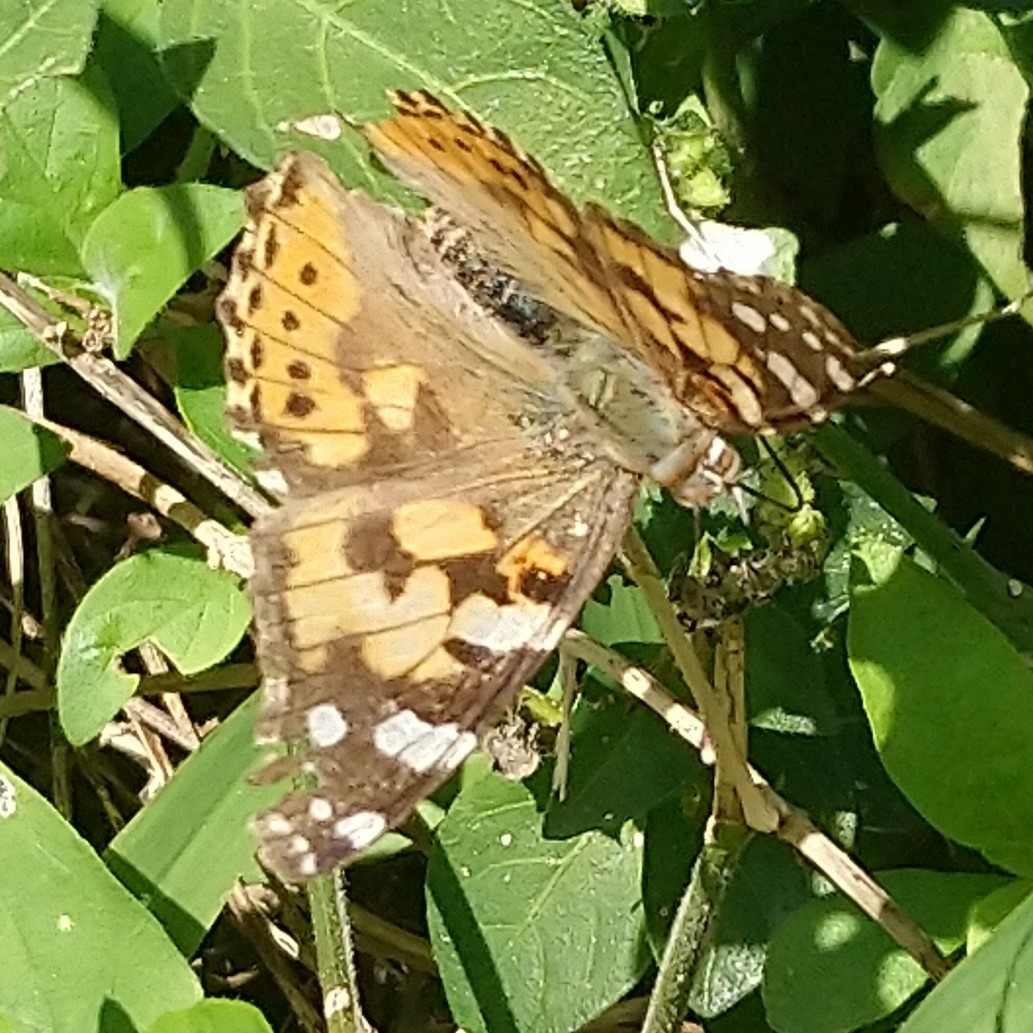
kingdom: Animalia
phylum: Arthropoda
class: Insecta
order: Lepidoptera
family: Nymphalidae
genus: Vanessa
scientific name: Vanessa cardui
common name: Painted lady
